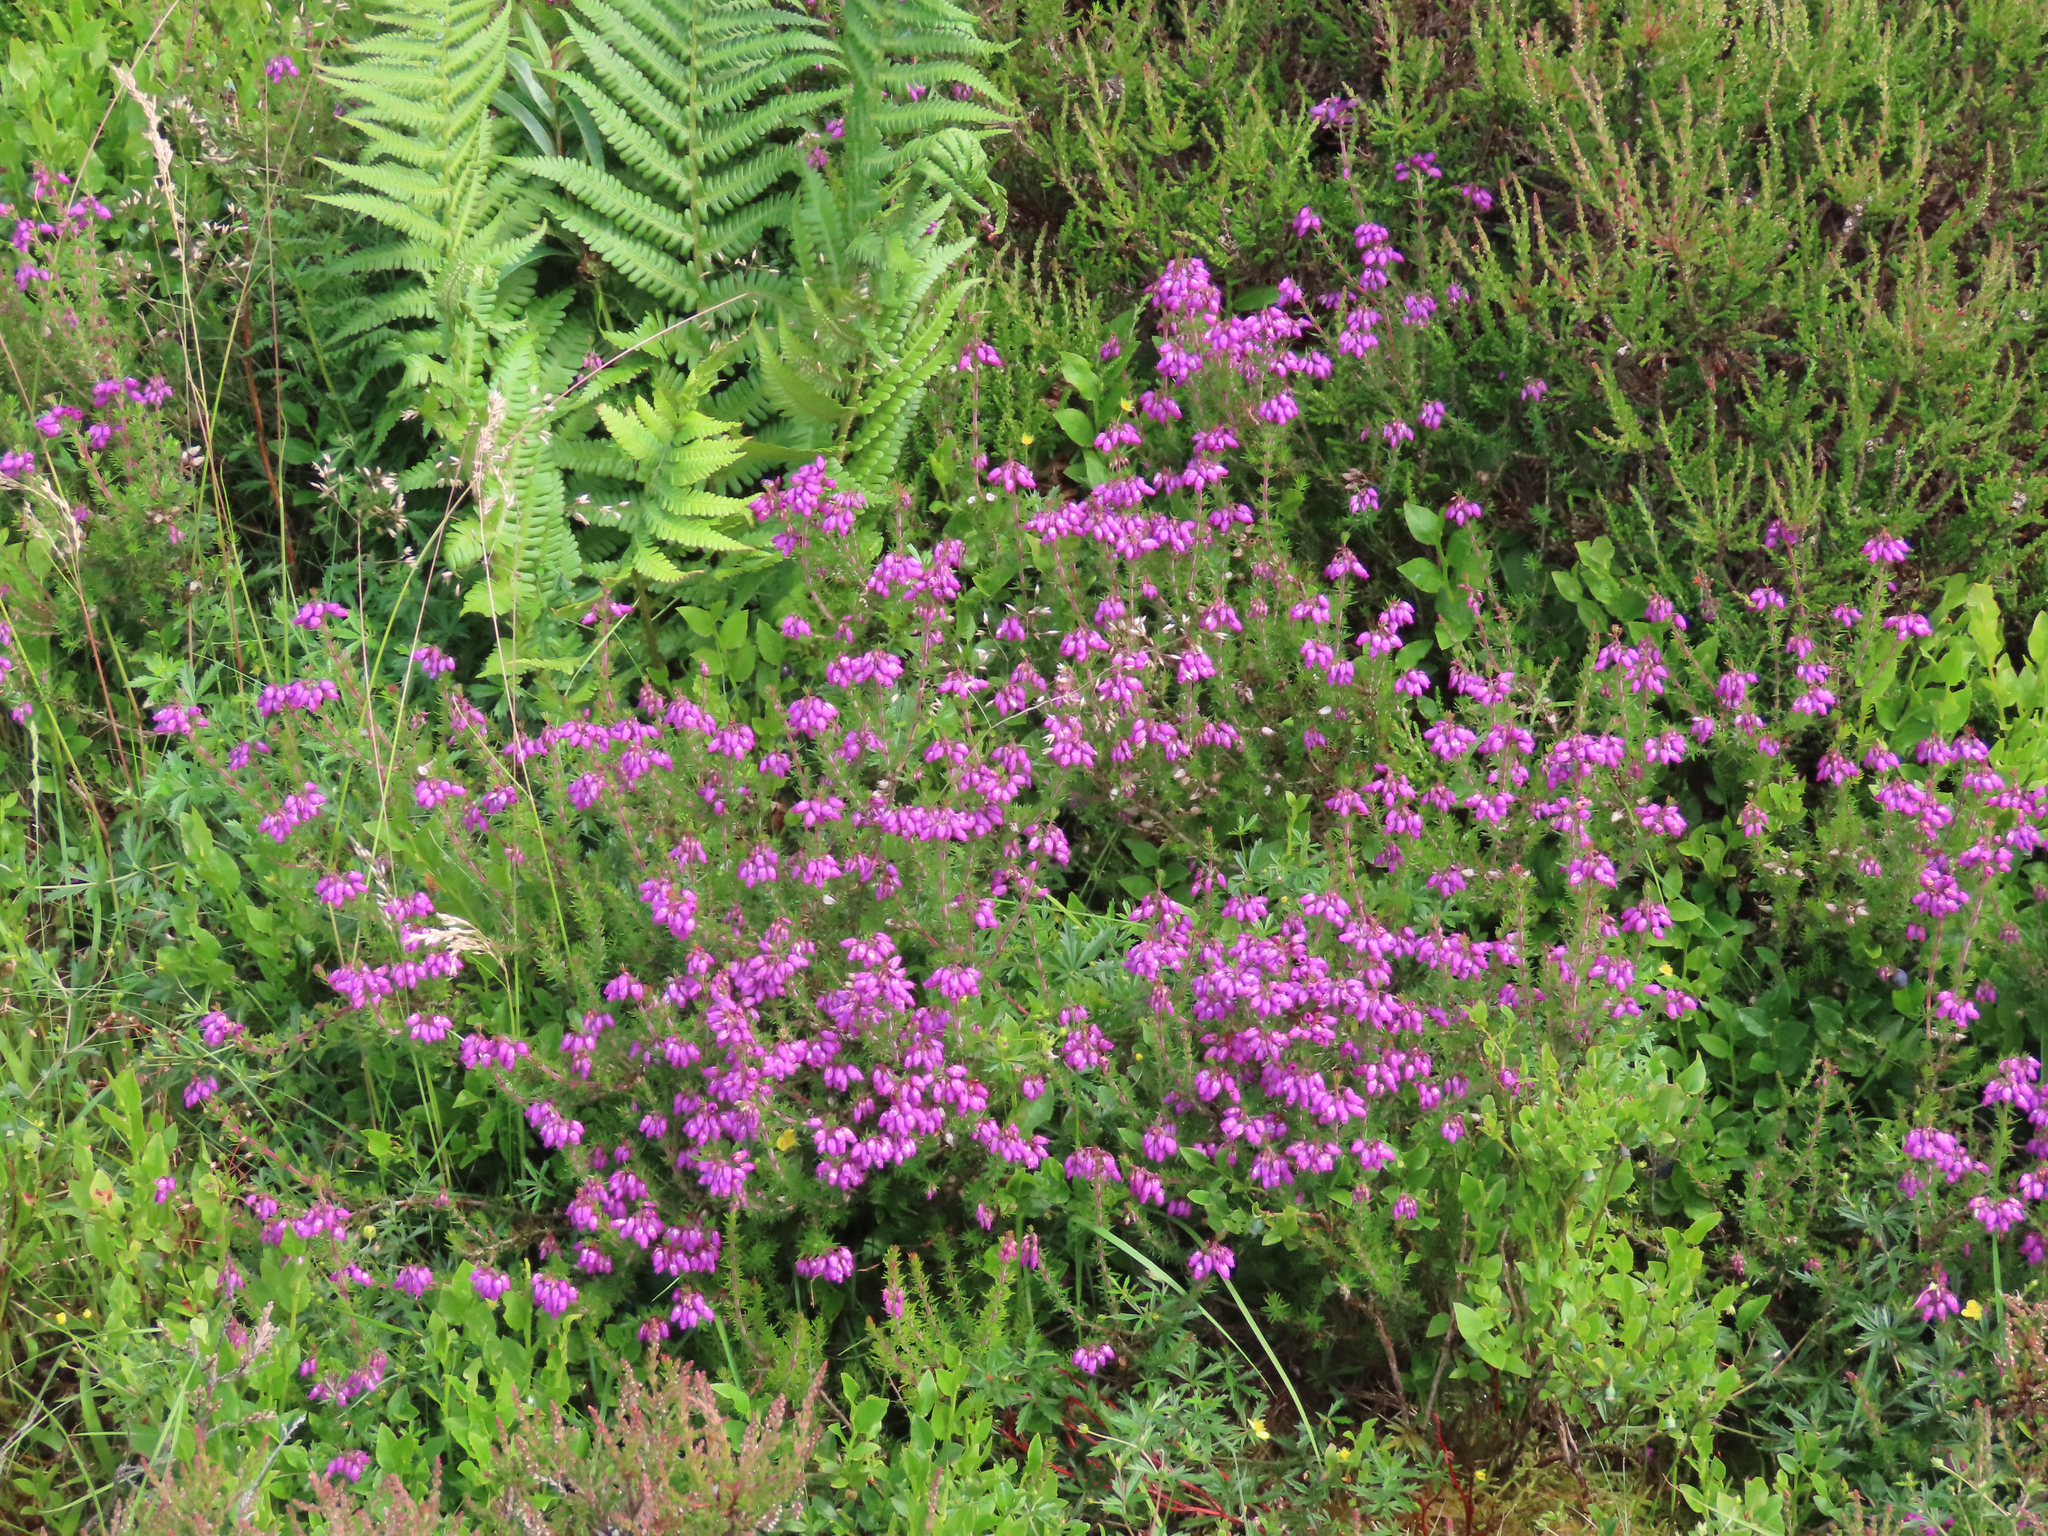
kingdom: Plantae
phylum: Tracheophyta
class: Magnoliopsida
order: Ericales
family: Ericaceae
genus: Erica
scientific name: Erica cinerea
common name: Bell heather
